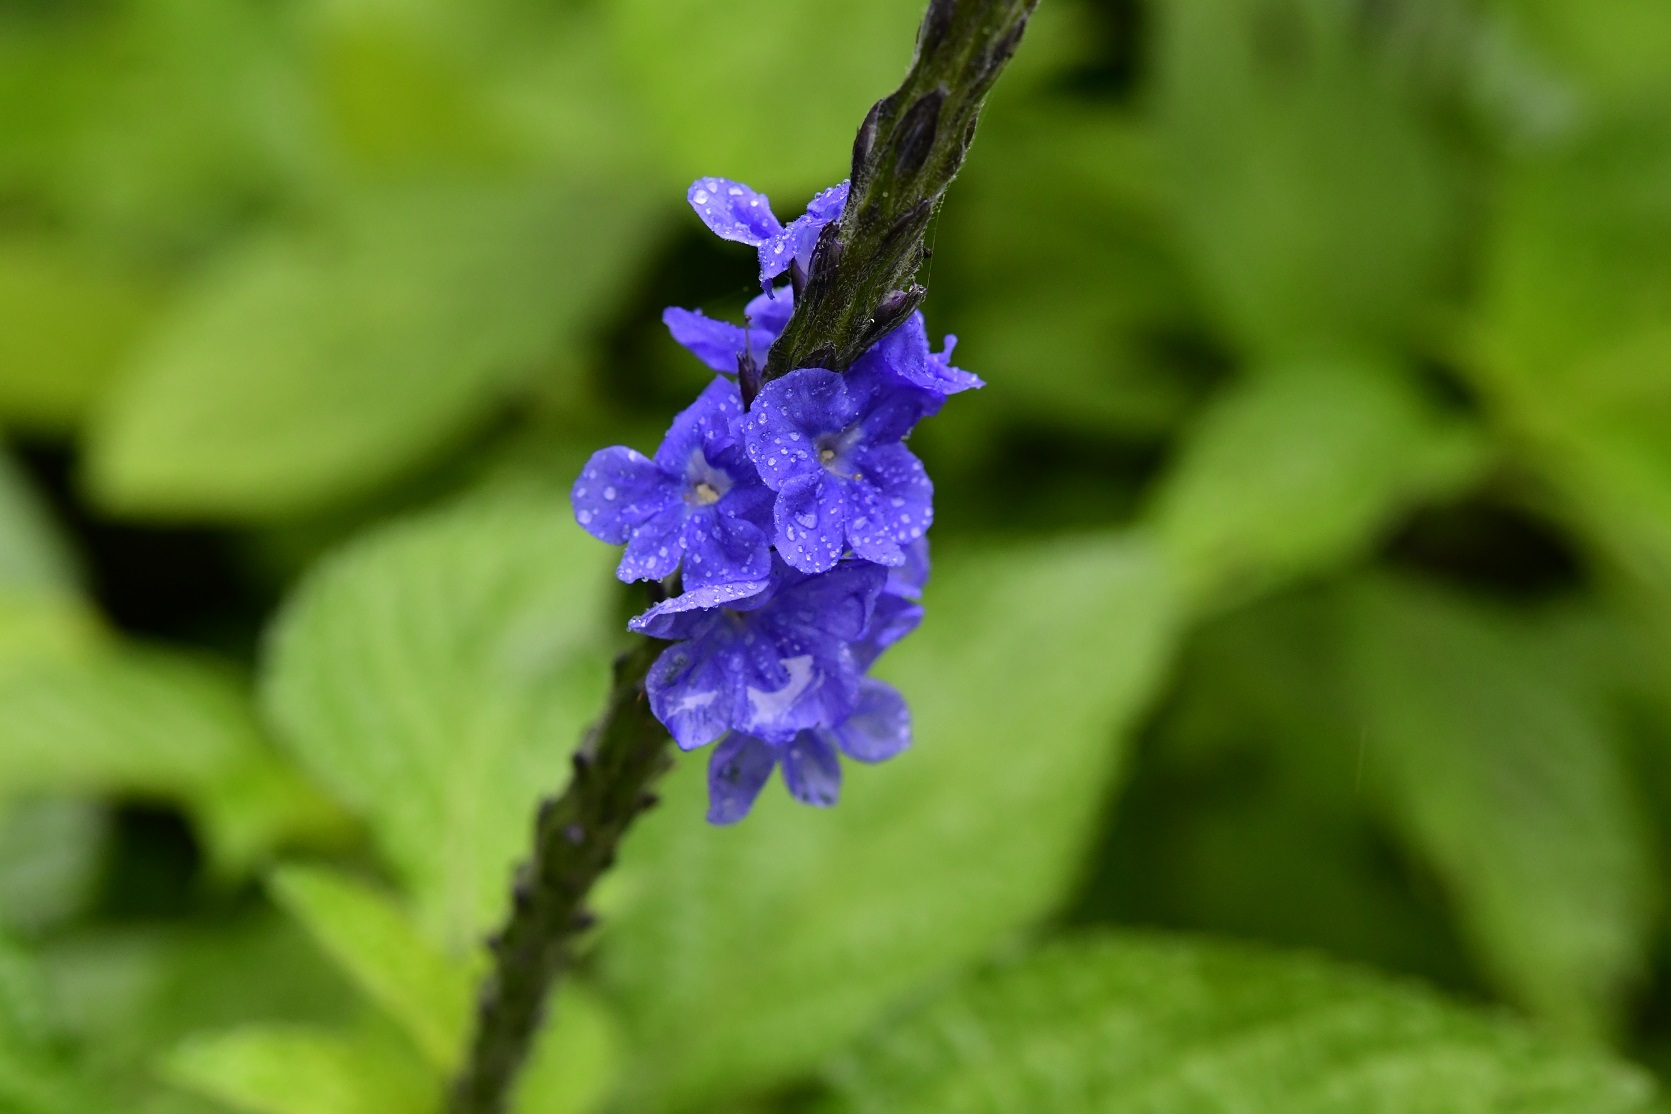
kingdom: Plantae
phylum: Tracheophyta
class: Magnoliopsida
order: Lamiales
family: Verbenaceae
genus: Stachytarpheta
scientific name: Stachytarpheta cayennensis
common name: Cayenne porterweed
